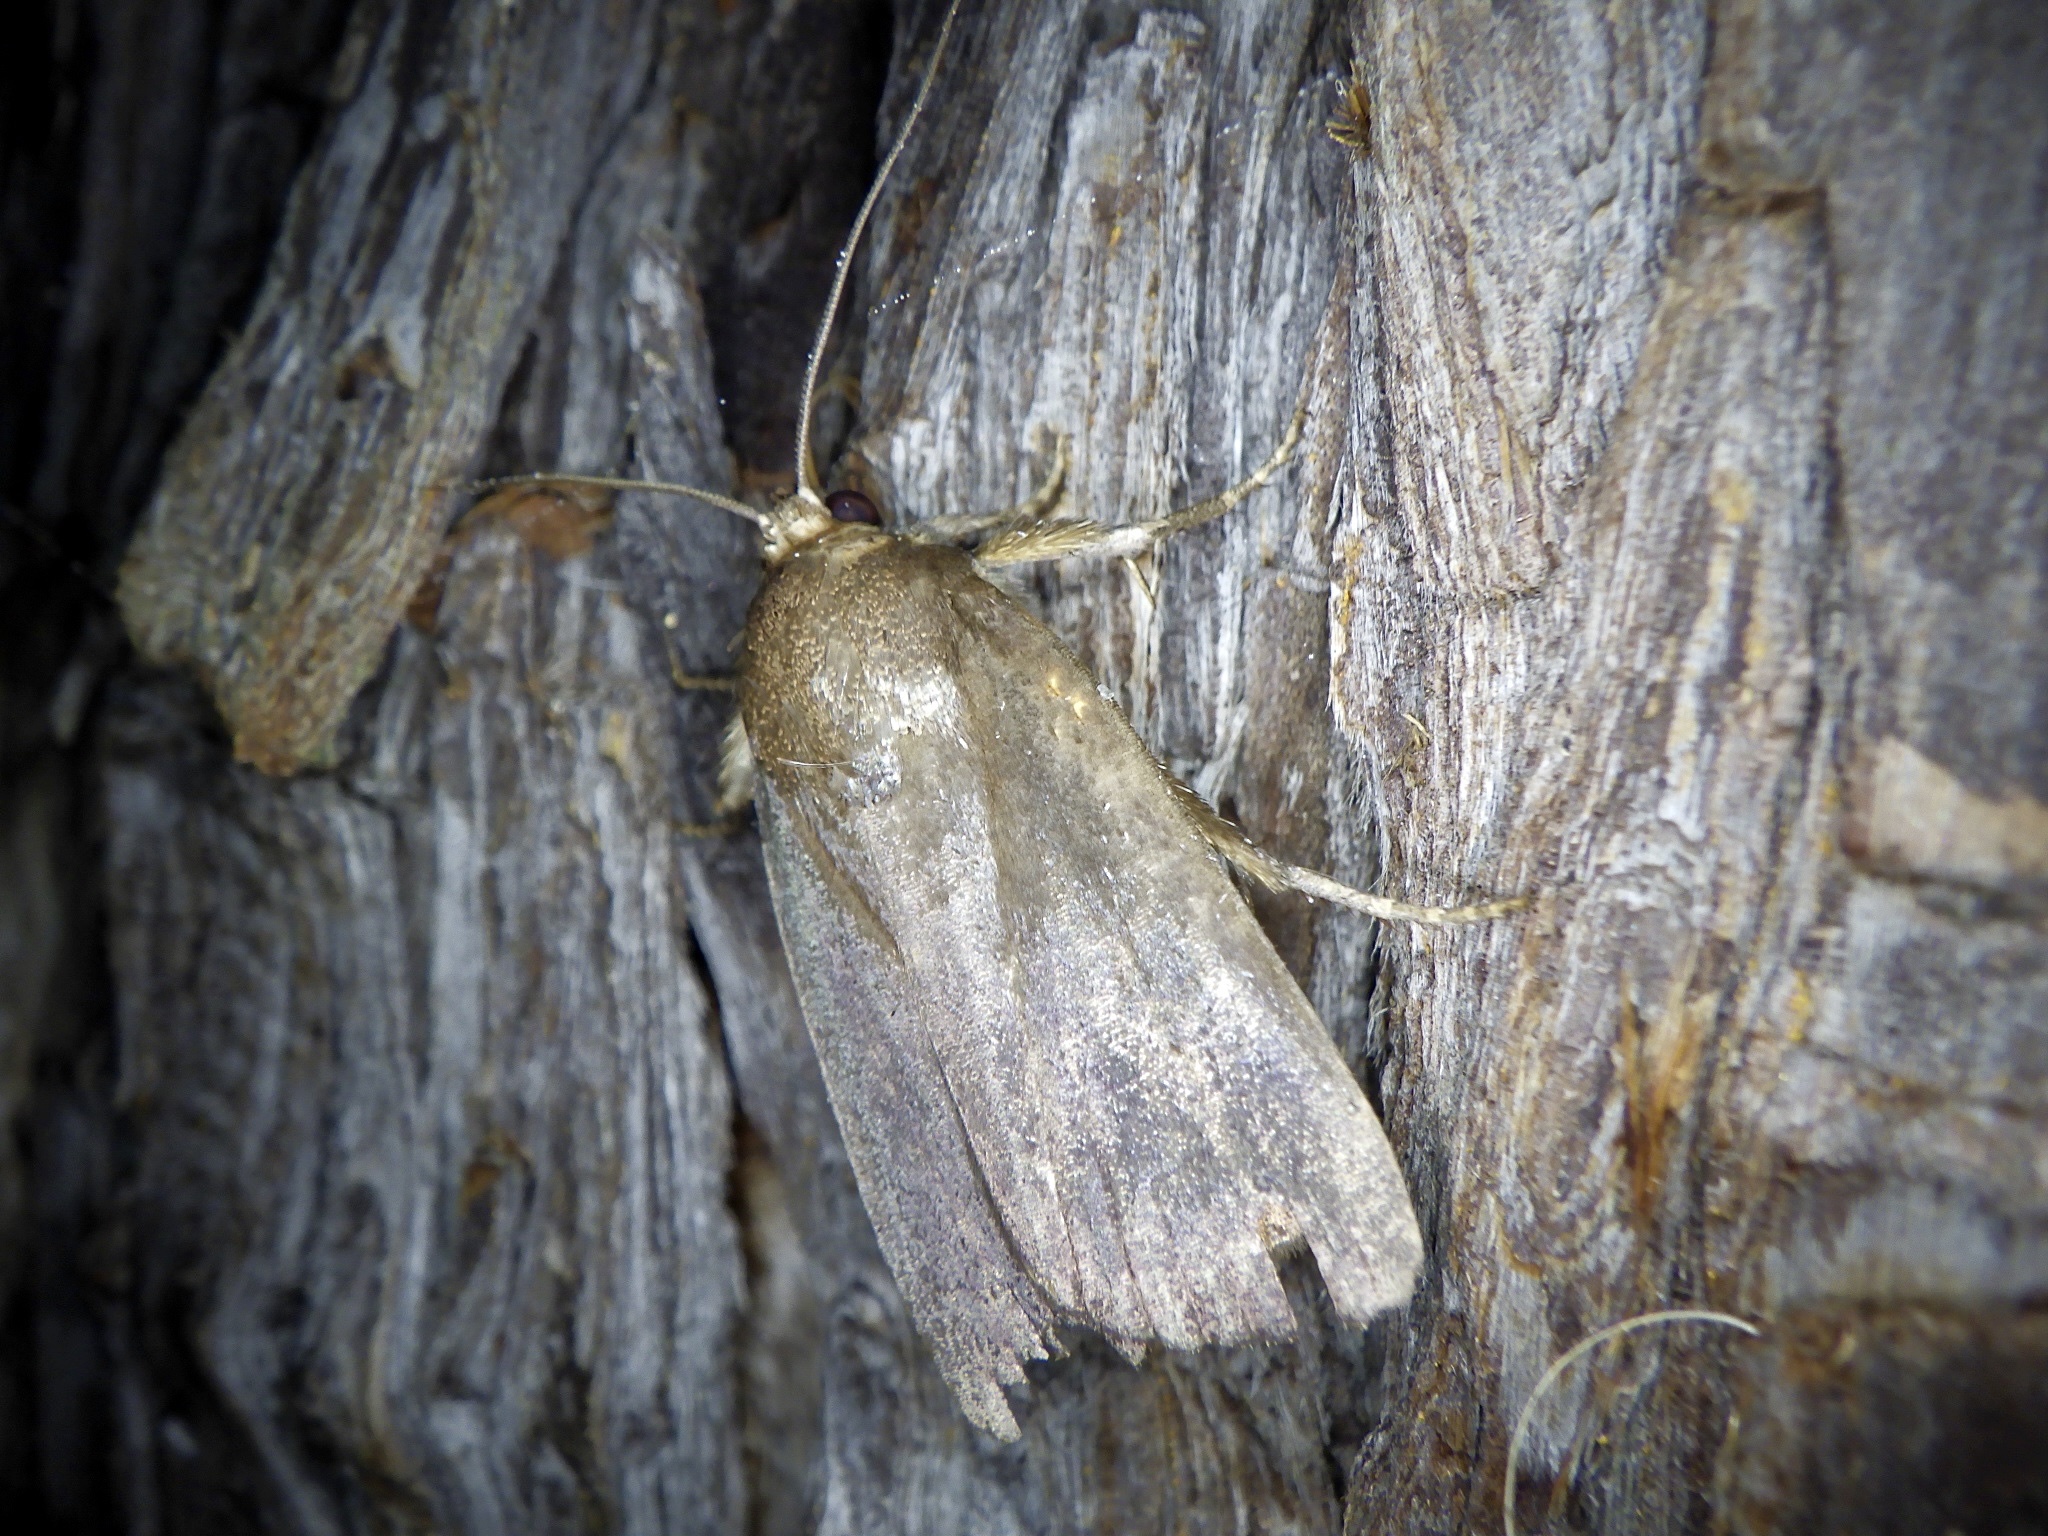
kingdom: Animalia
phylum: Arthropoda
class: Insecta
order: Lepidoptera
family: Noctuidae
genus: Amphipyra
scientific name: Amphipyra livida
